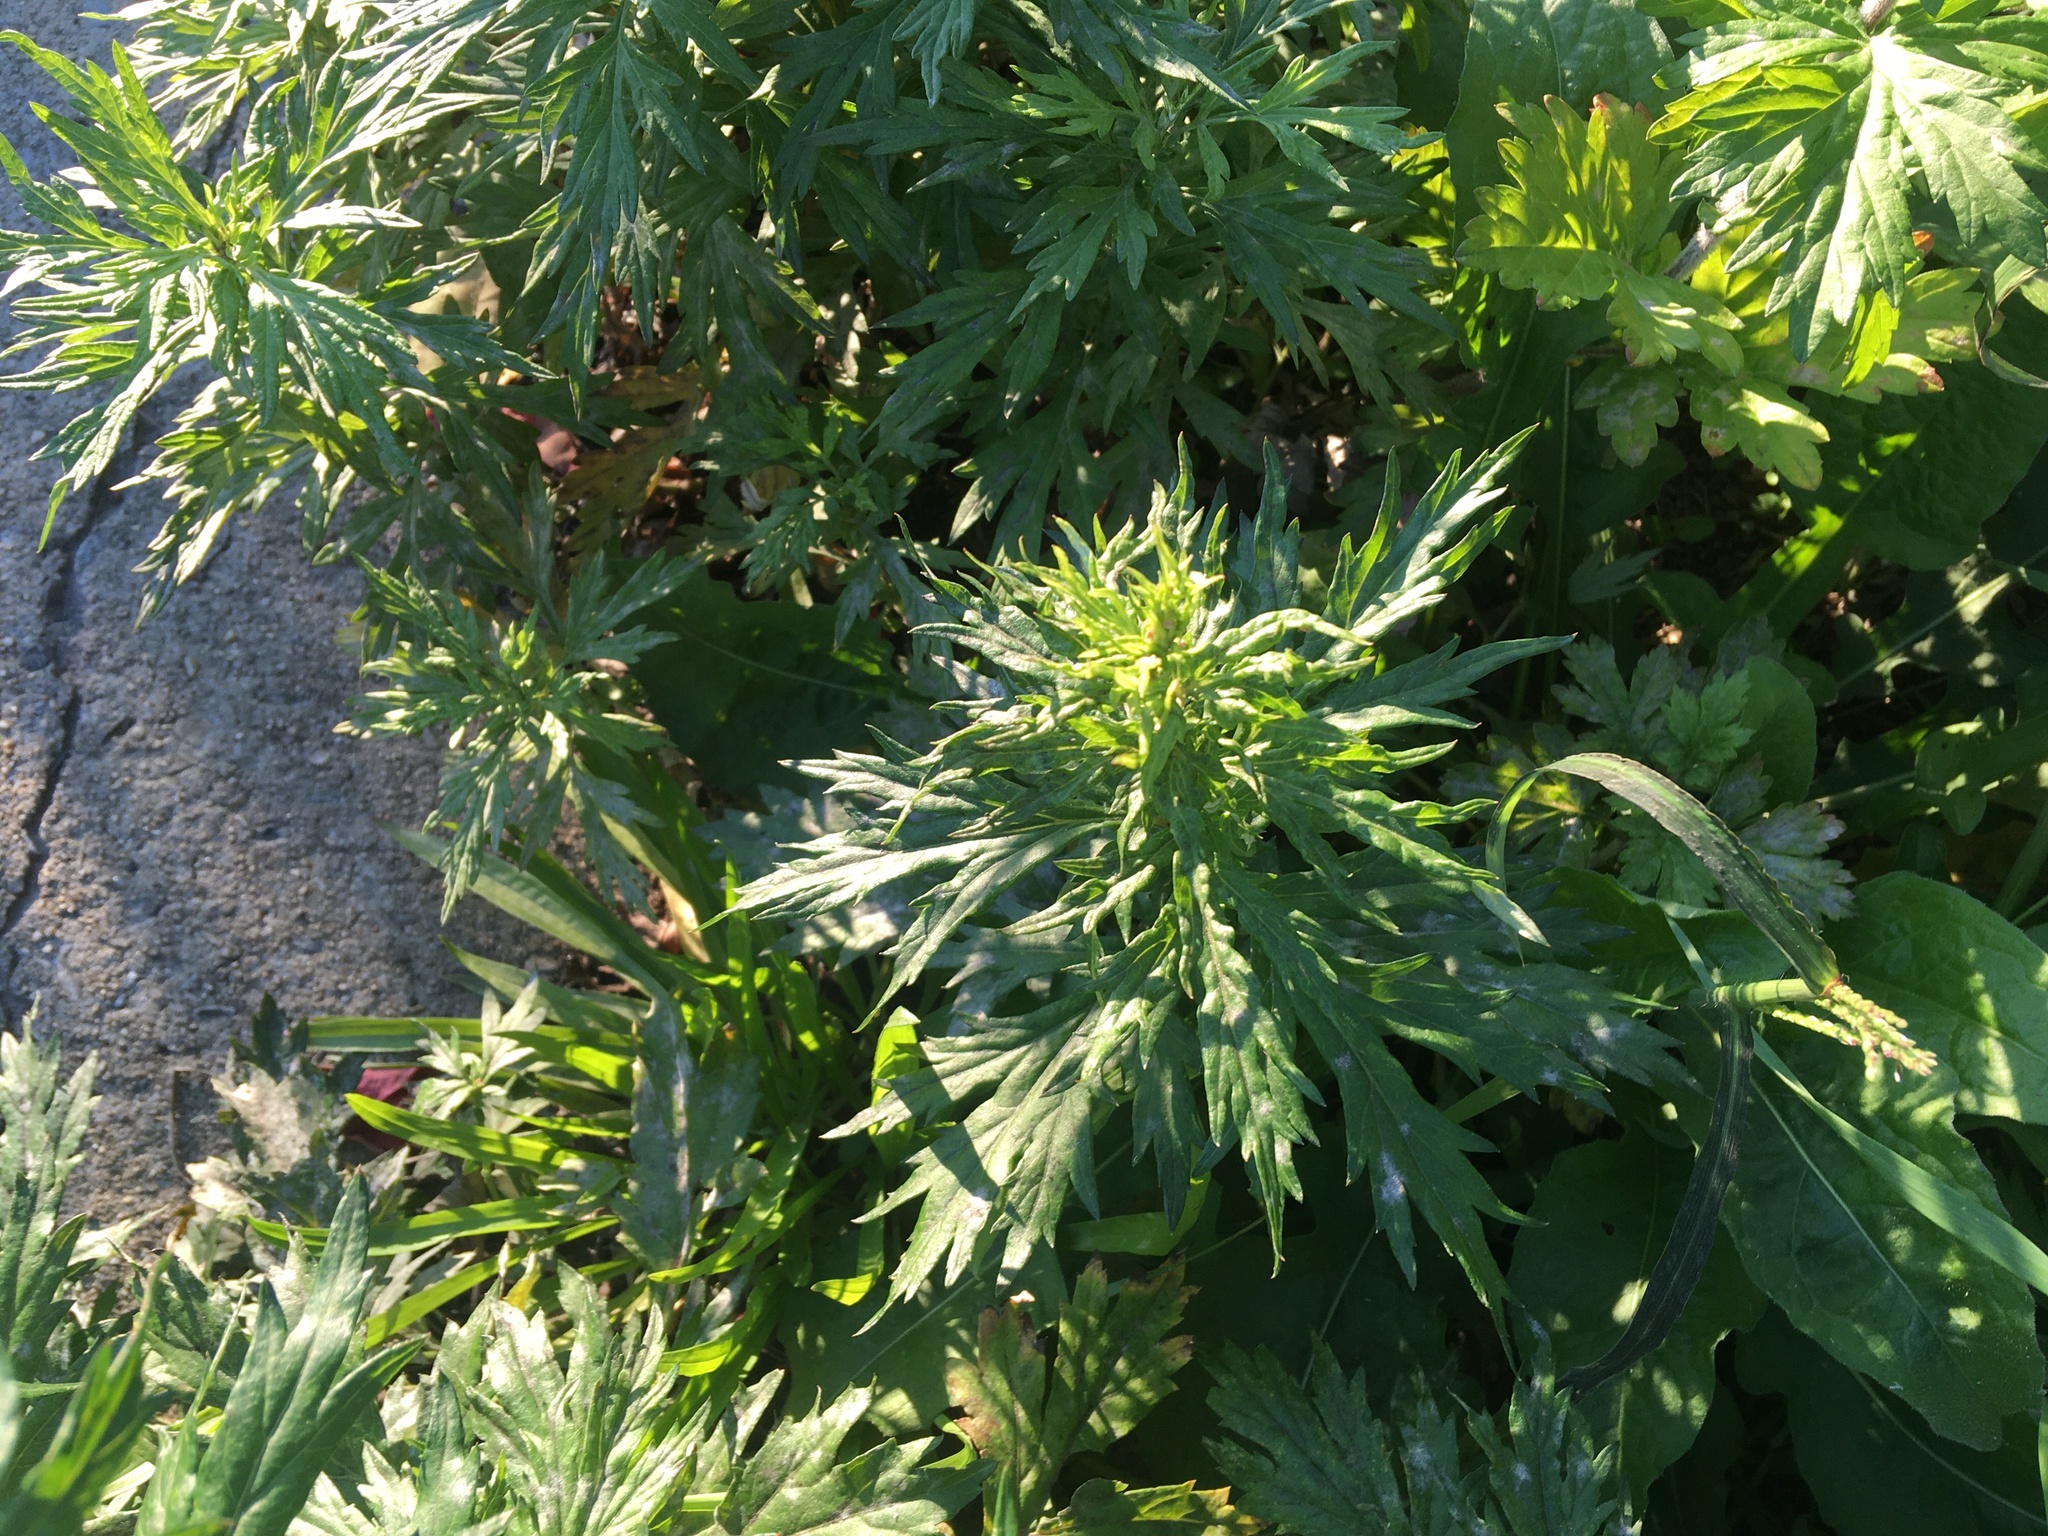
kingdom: Plantae
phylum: Tracheophyta
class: Magnoliopsida
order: Asterales
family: Asteraceae
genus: Artemisia
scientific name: Artemisia vulgaris
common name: Mugwort
